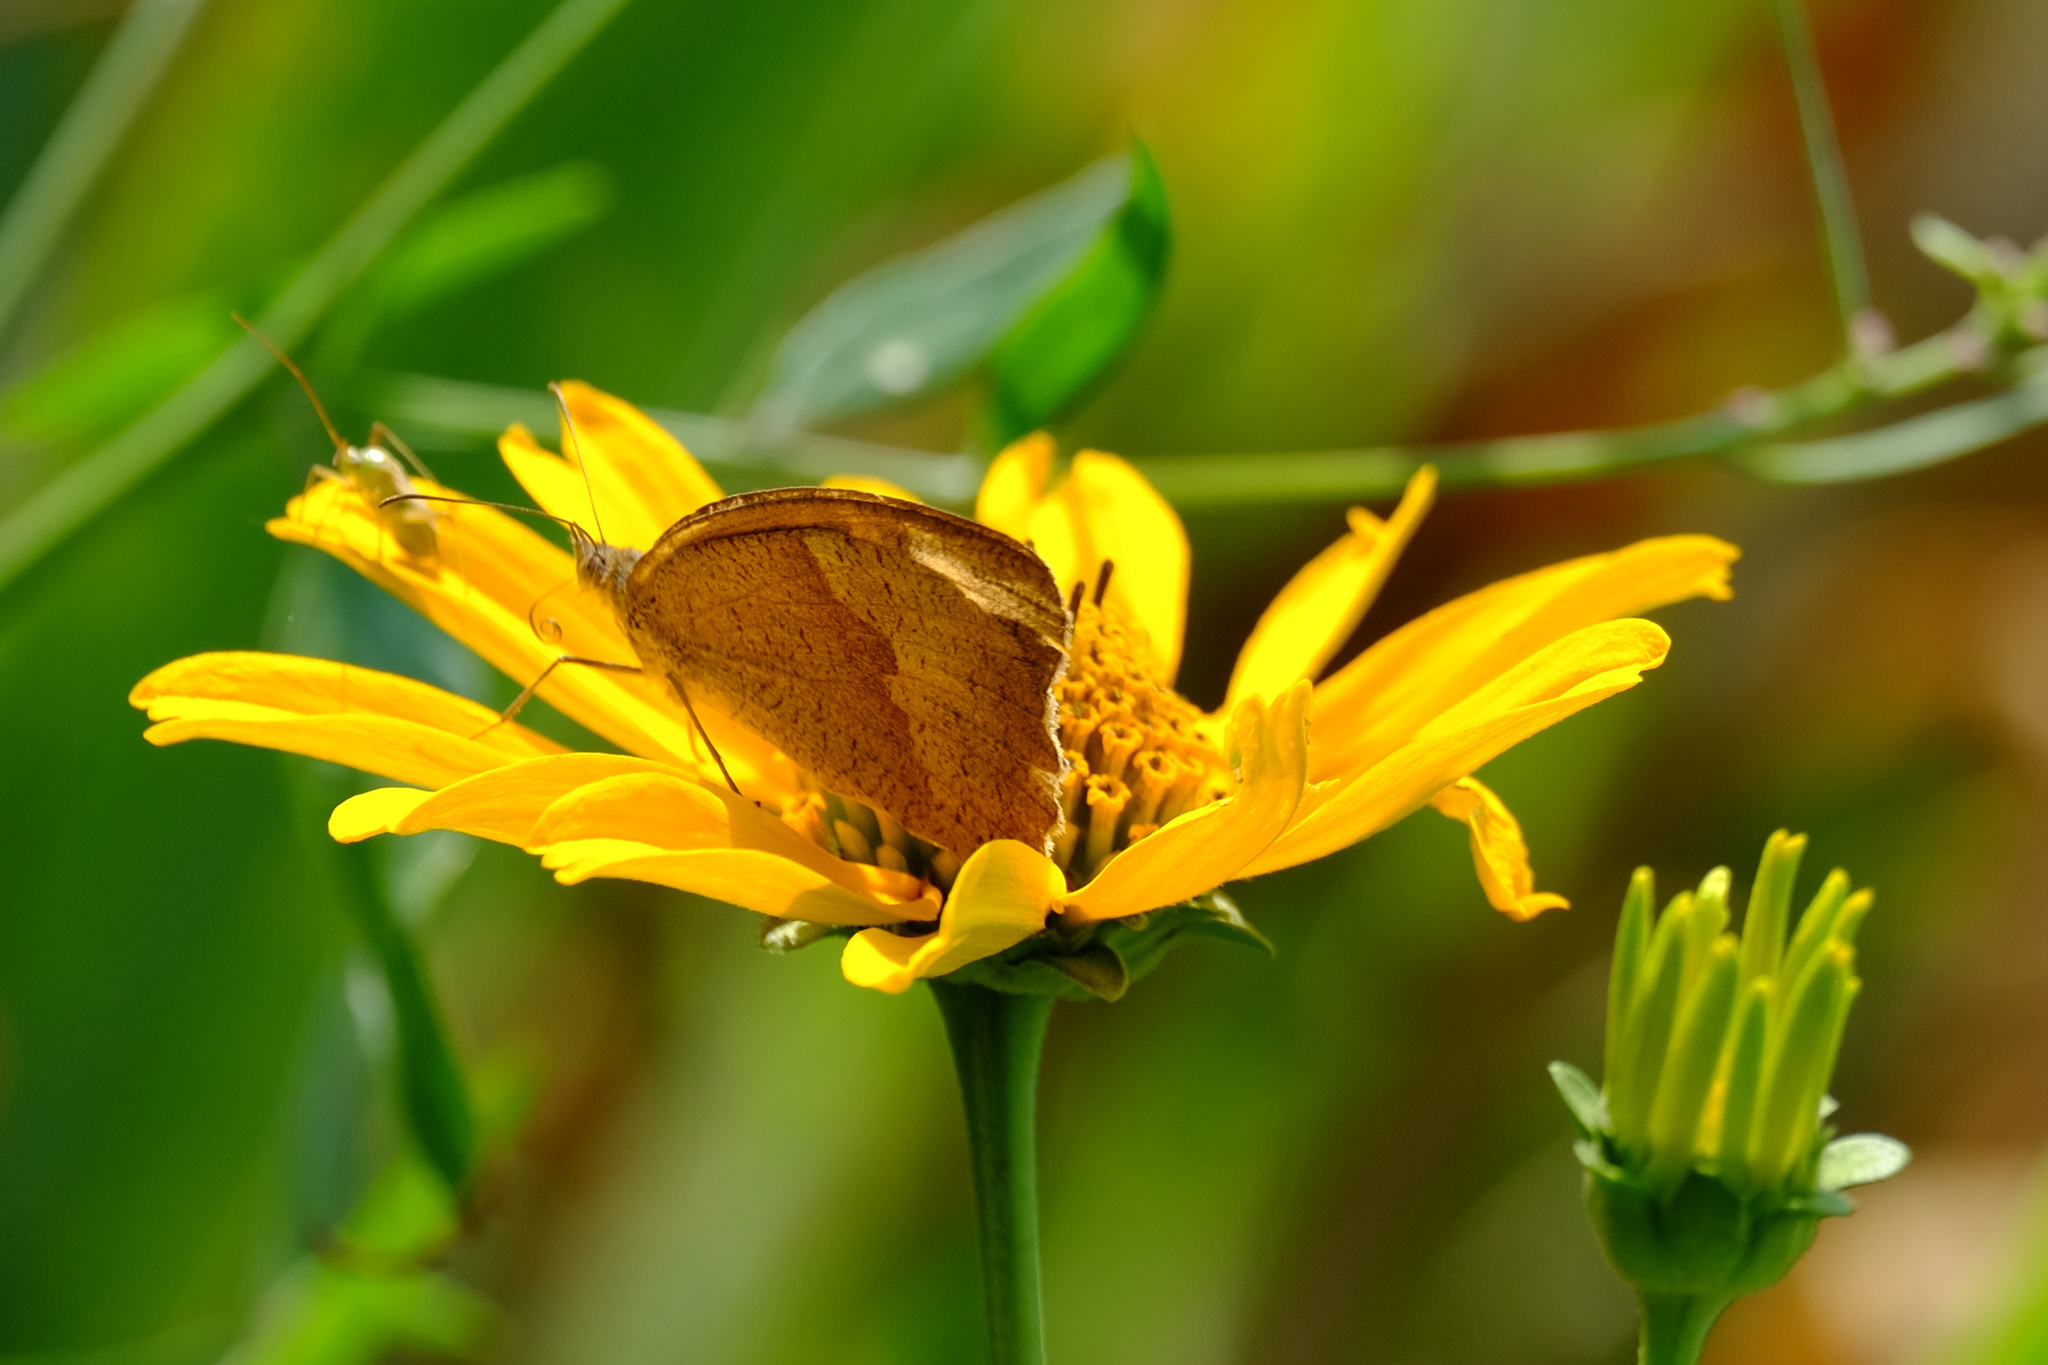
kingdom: Animalia
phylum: Arthropoda
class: Insecta
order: Lepidoptera
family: Nymphalidae
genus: Maniola
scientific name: Maniola jurtina
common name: Meadow brown
